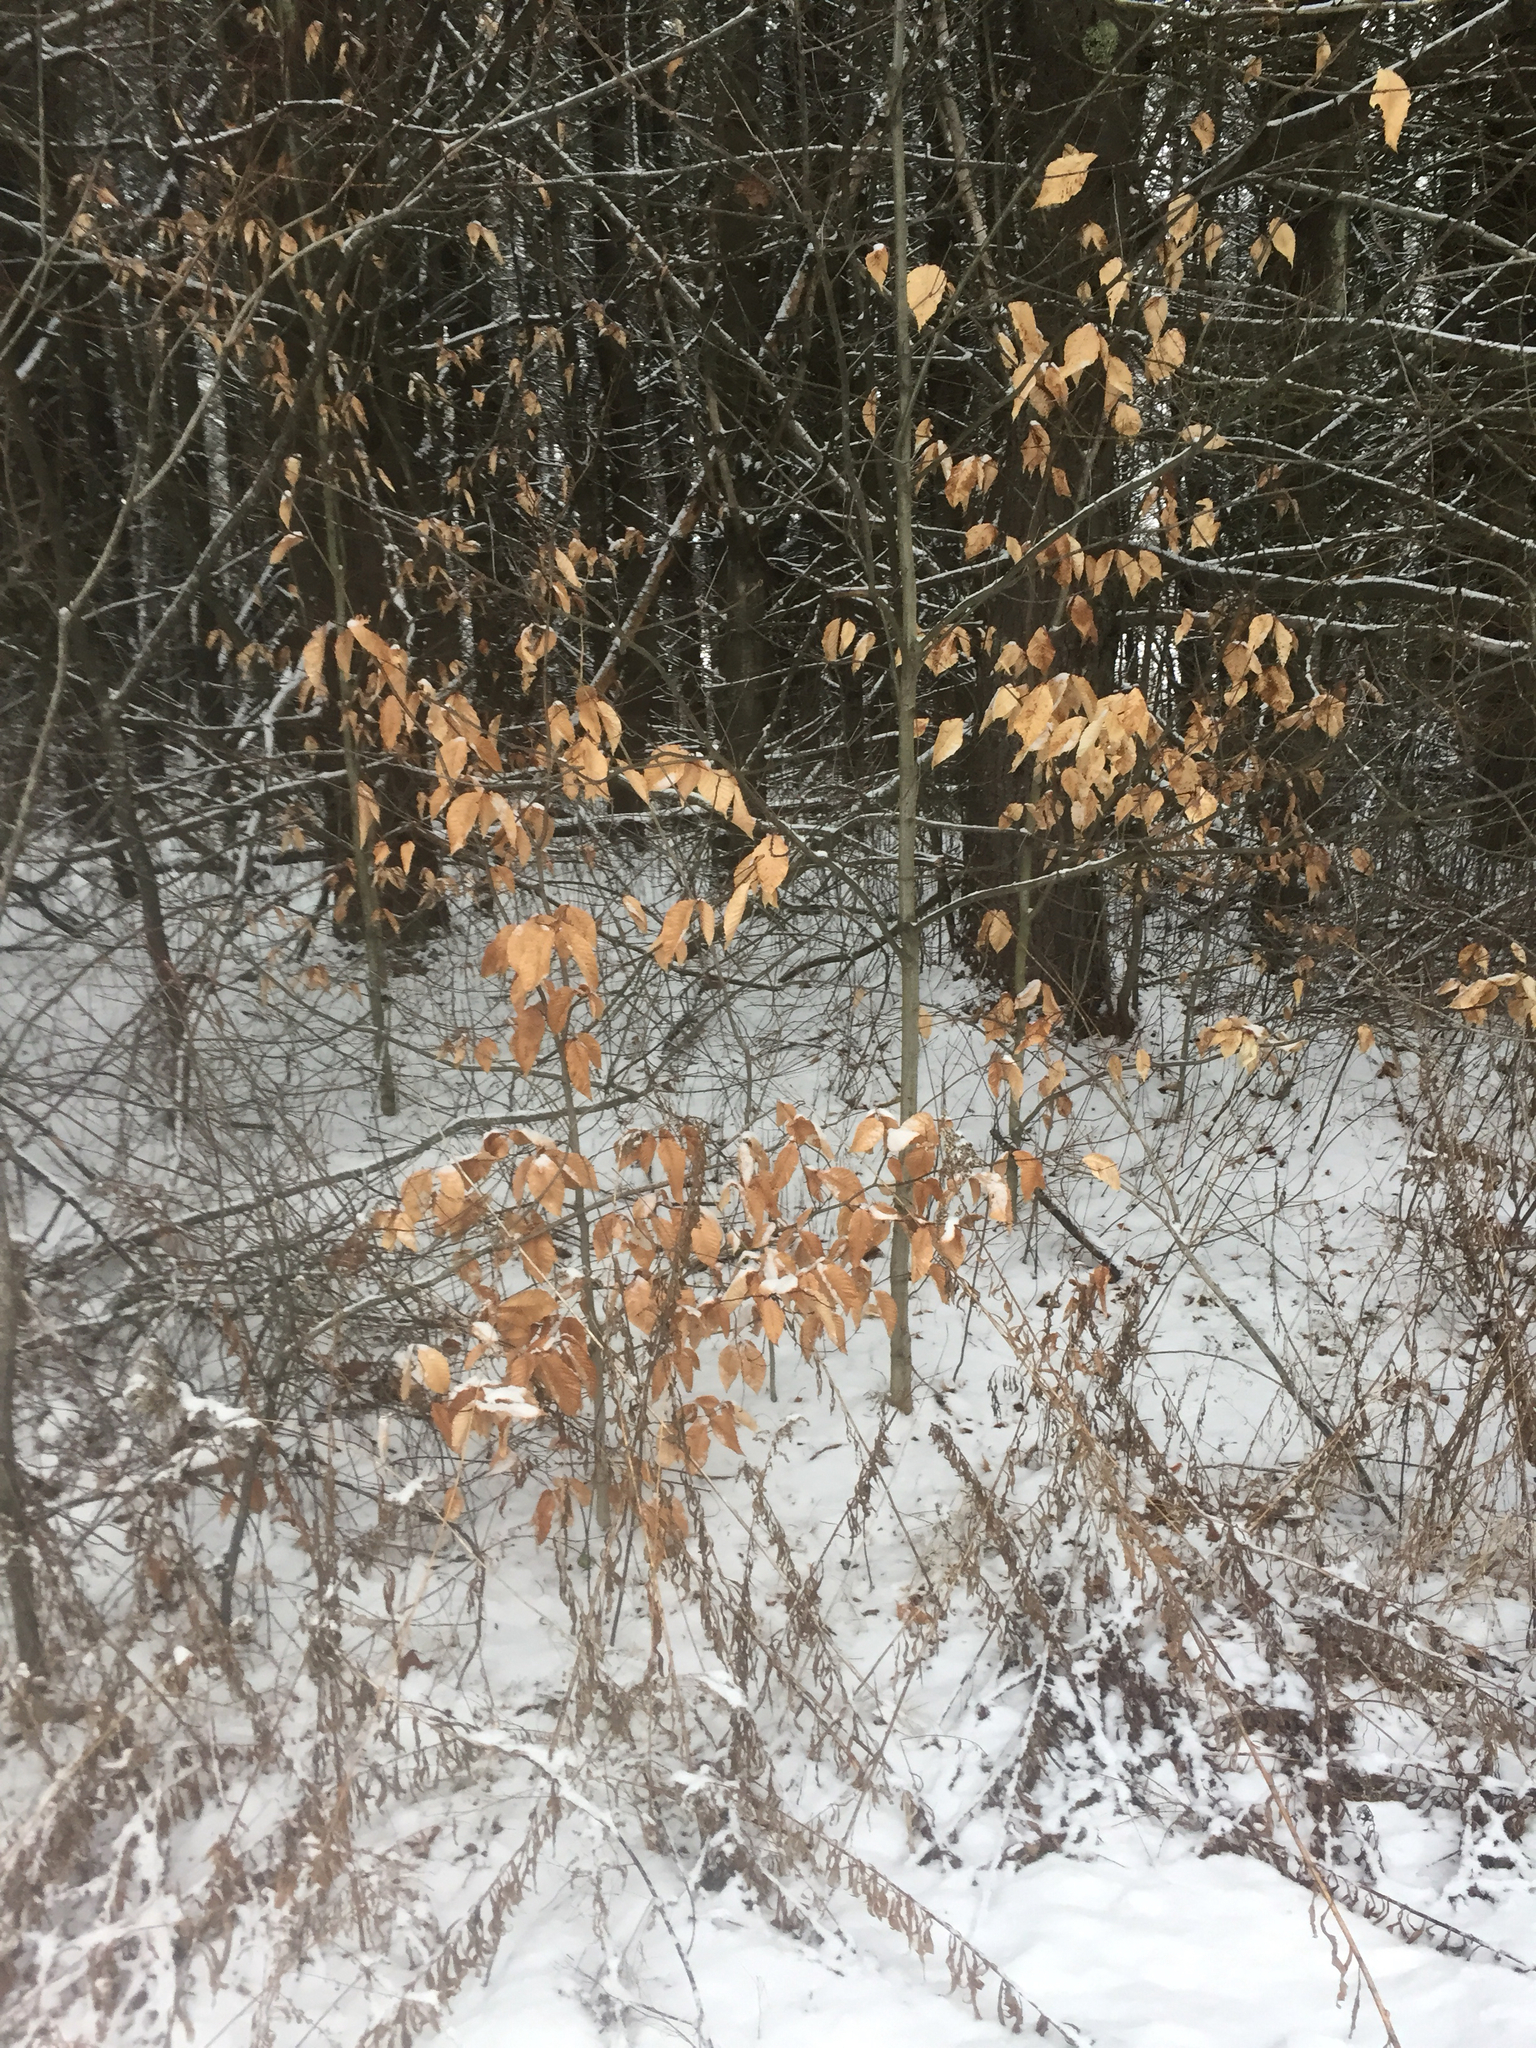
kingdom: Plantae
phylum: Tracheophyta
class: Magnoliopsida
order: Fagales
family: Fagaceae
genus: Fagus
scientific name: Fagus grandifolia
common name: American beech
